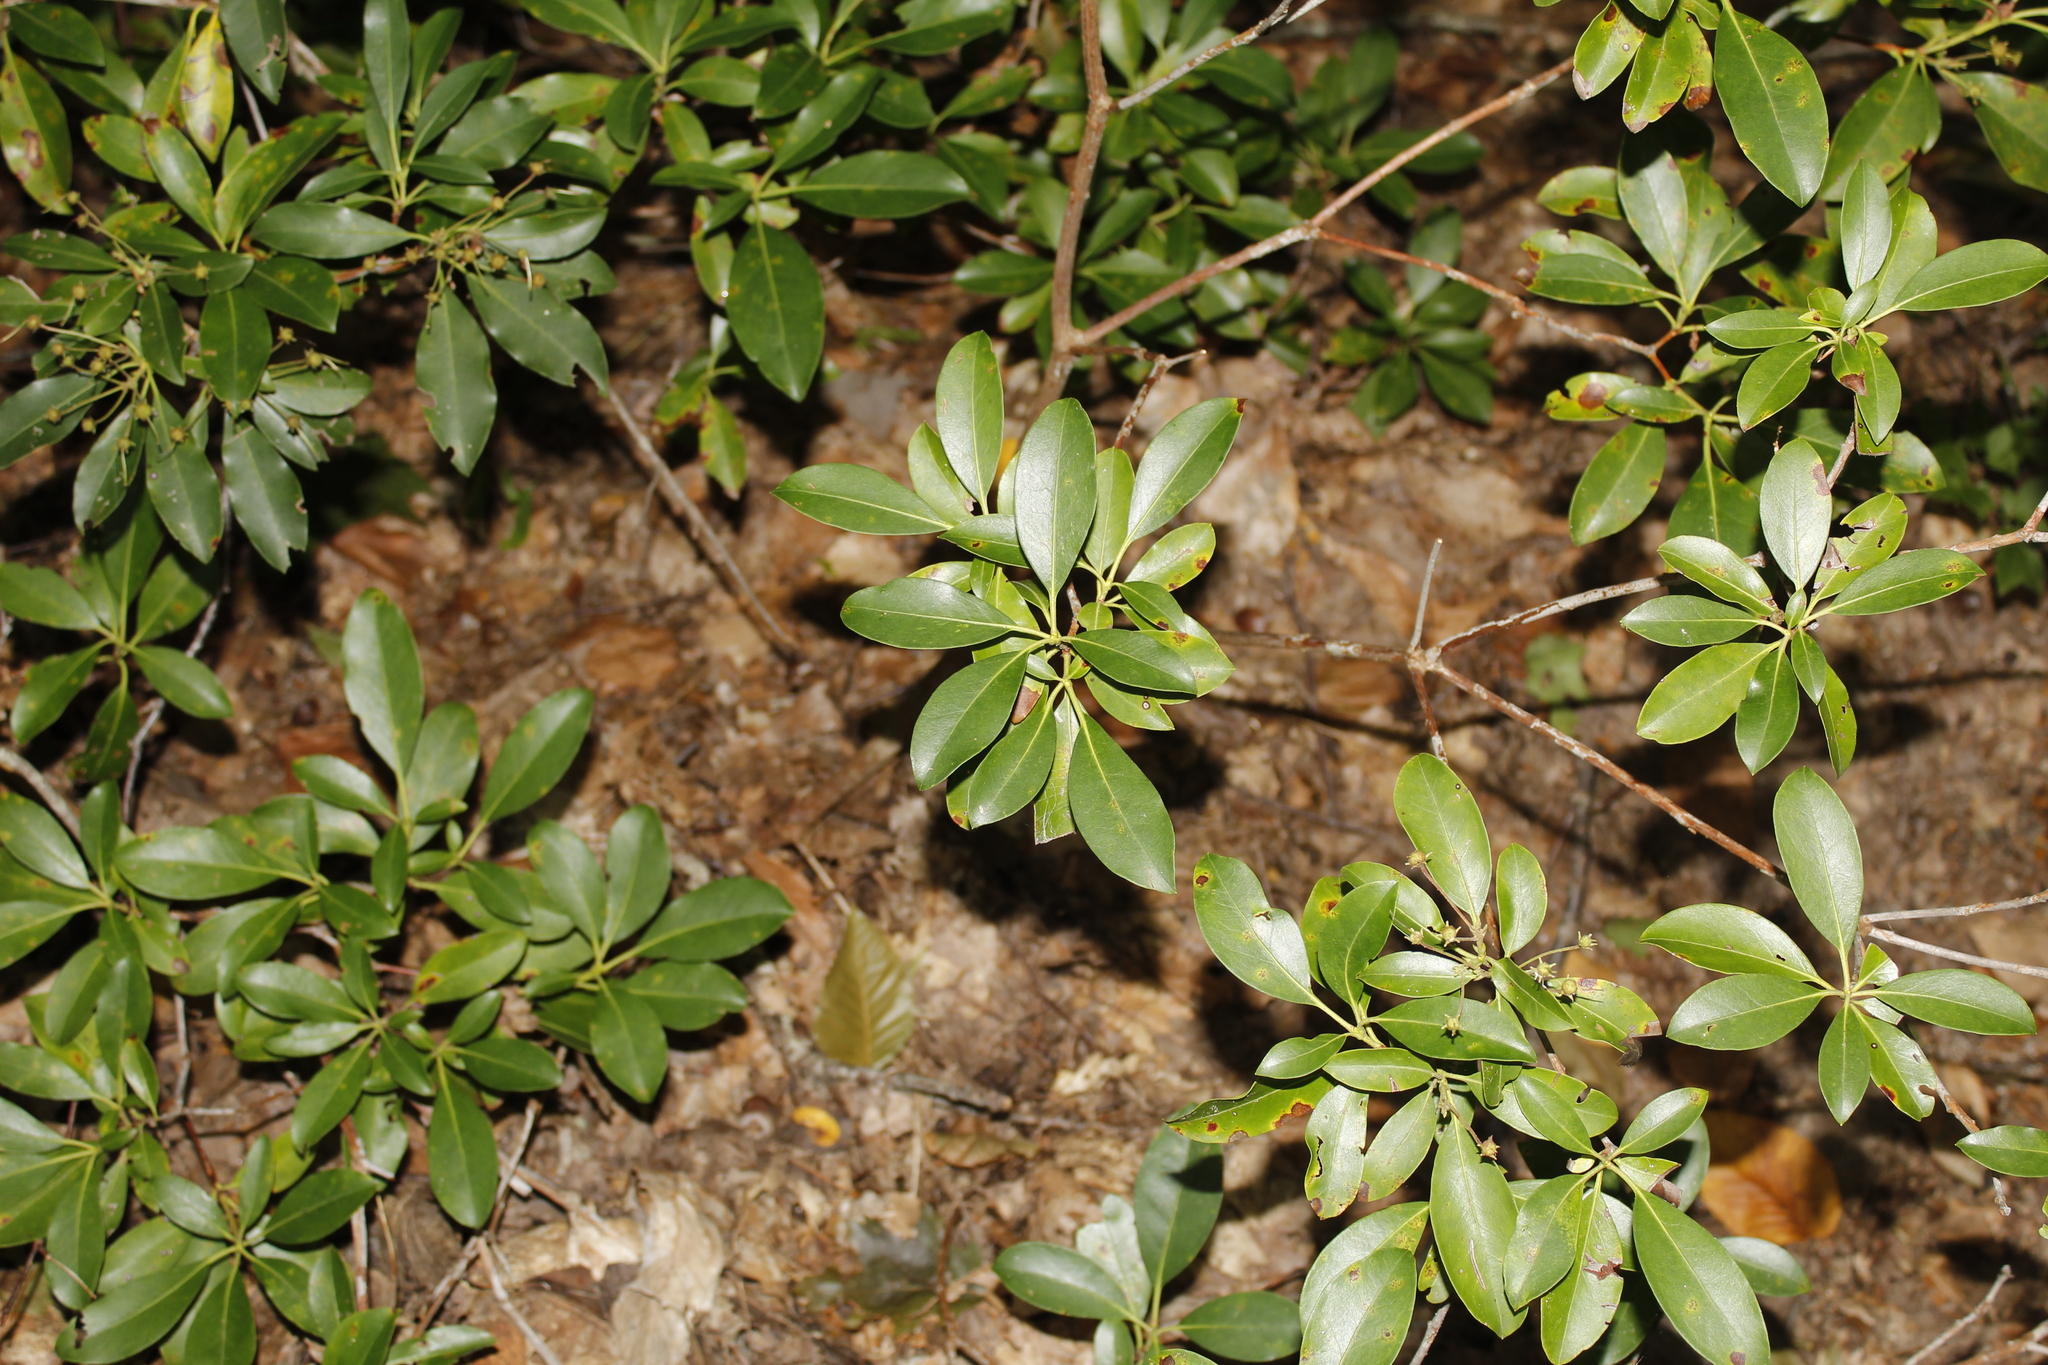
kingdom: Plantae
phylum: Tracheophyta
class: Magnoliopsida
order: Ericales
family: Ericaceae
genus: Kalmia
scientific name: Kalmia latifolia
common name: Mountain-laurel
